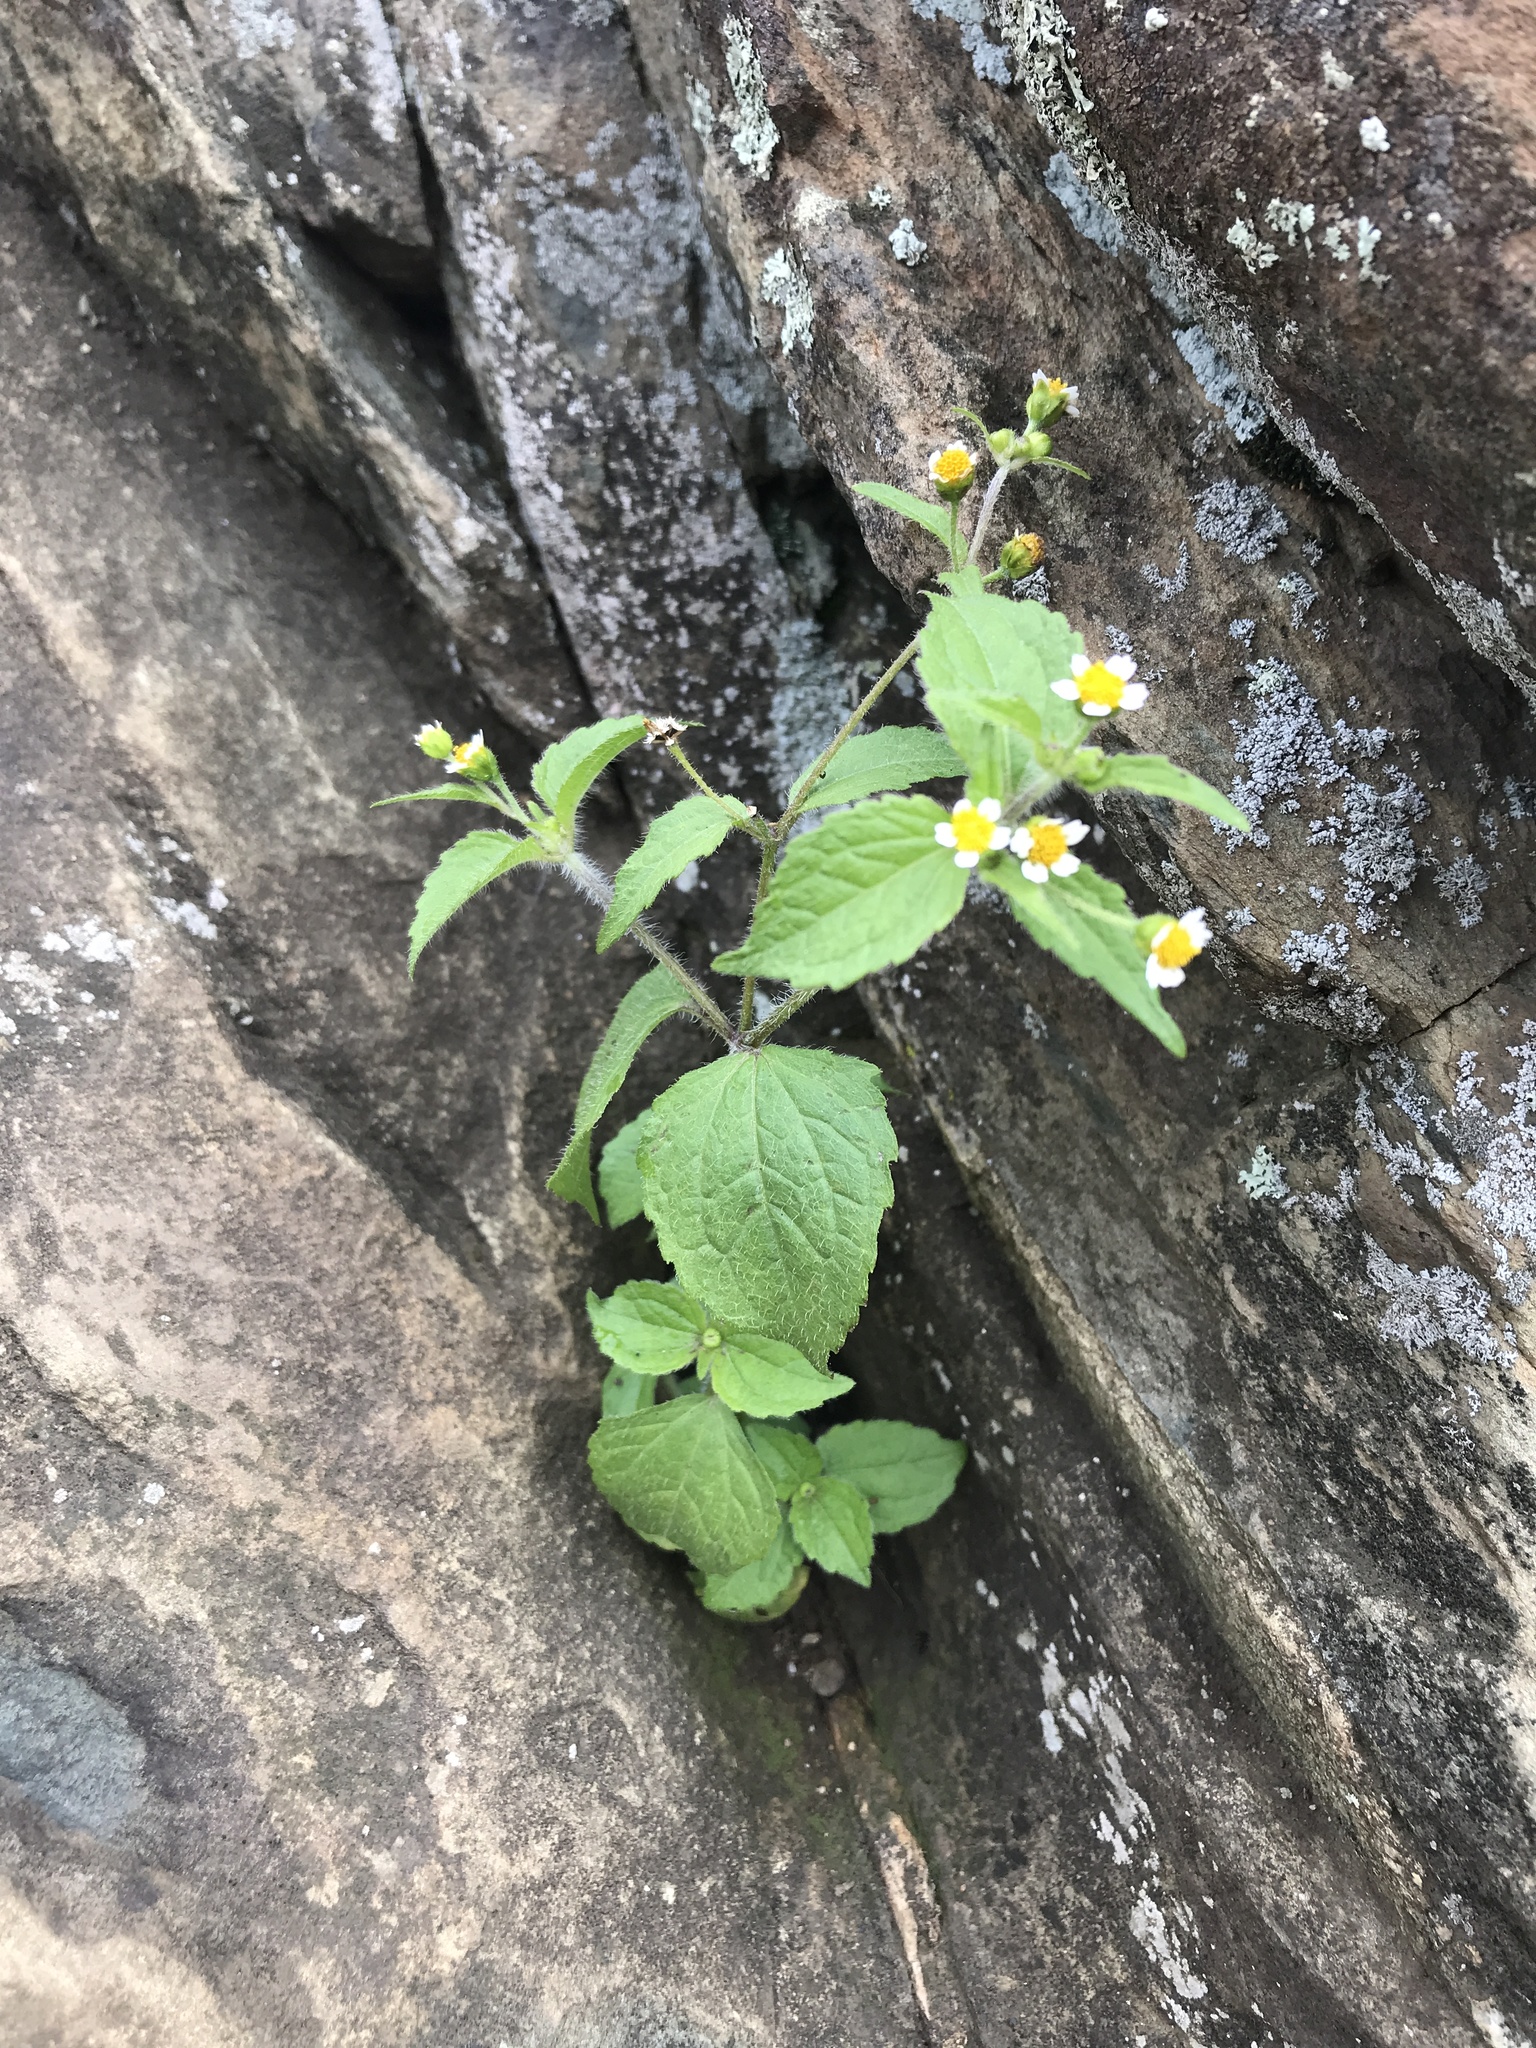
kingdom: Plantae
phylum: Tracheophyta
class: Magnoliopsida
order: Asterales
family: Asteraceae
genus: Galinsoga
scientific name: Galinsoga quadriradiata
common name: Shaggy soldier
